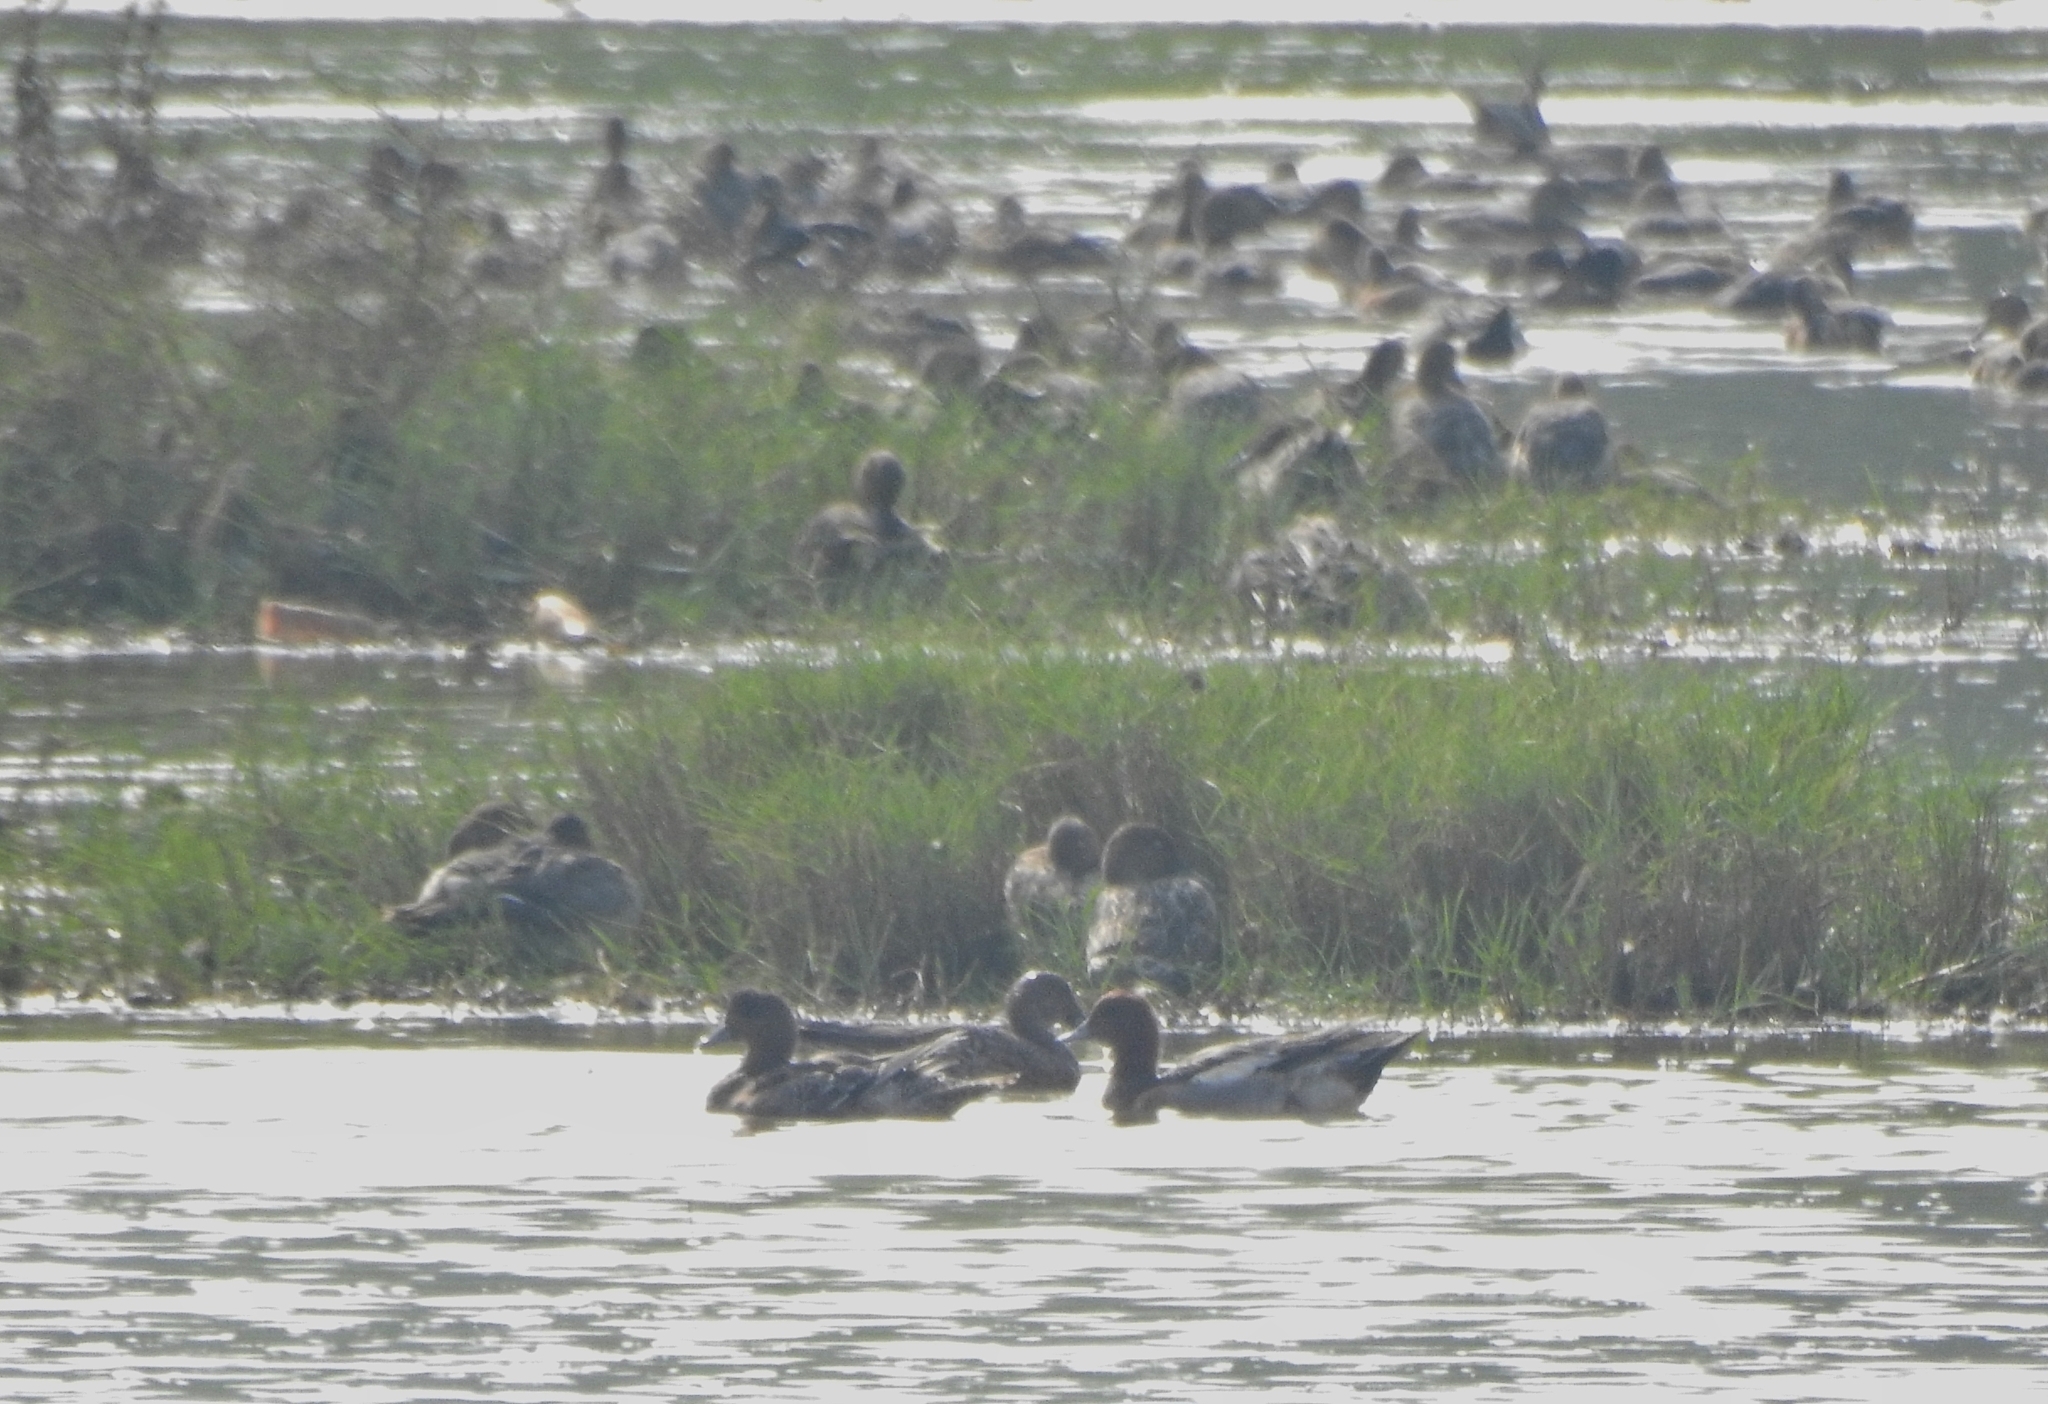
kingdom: Animalia
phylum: Chordata
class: Aves
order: Anseriformes
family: Anatidae
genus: Mareca
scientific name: Mareca penelope
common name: Eurasian wigeon
